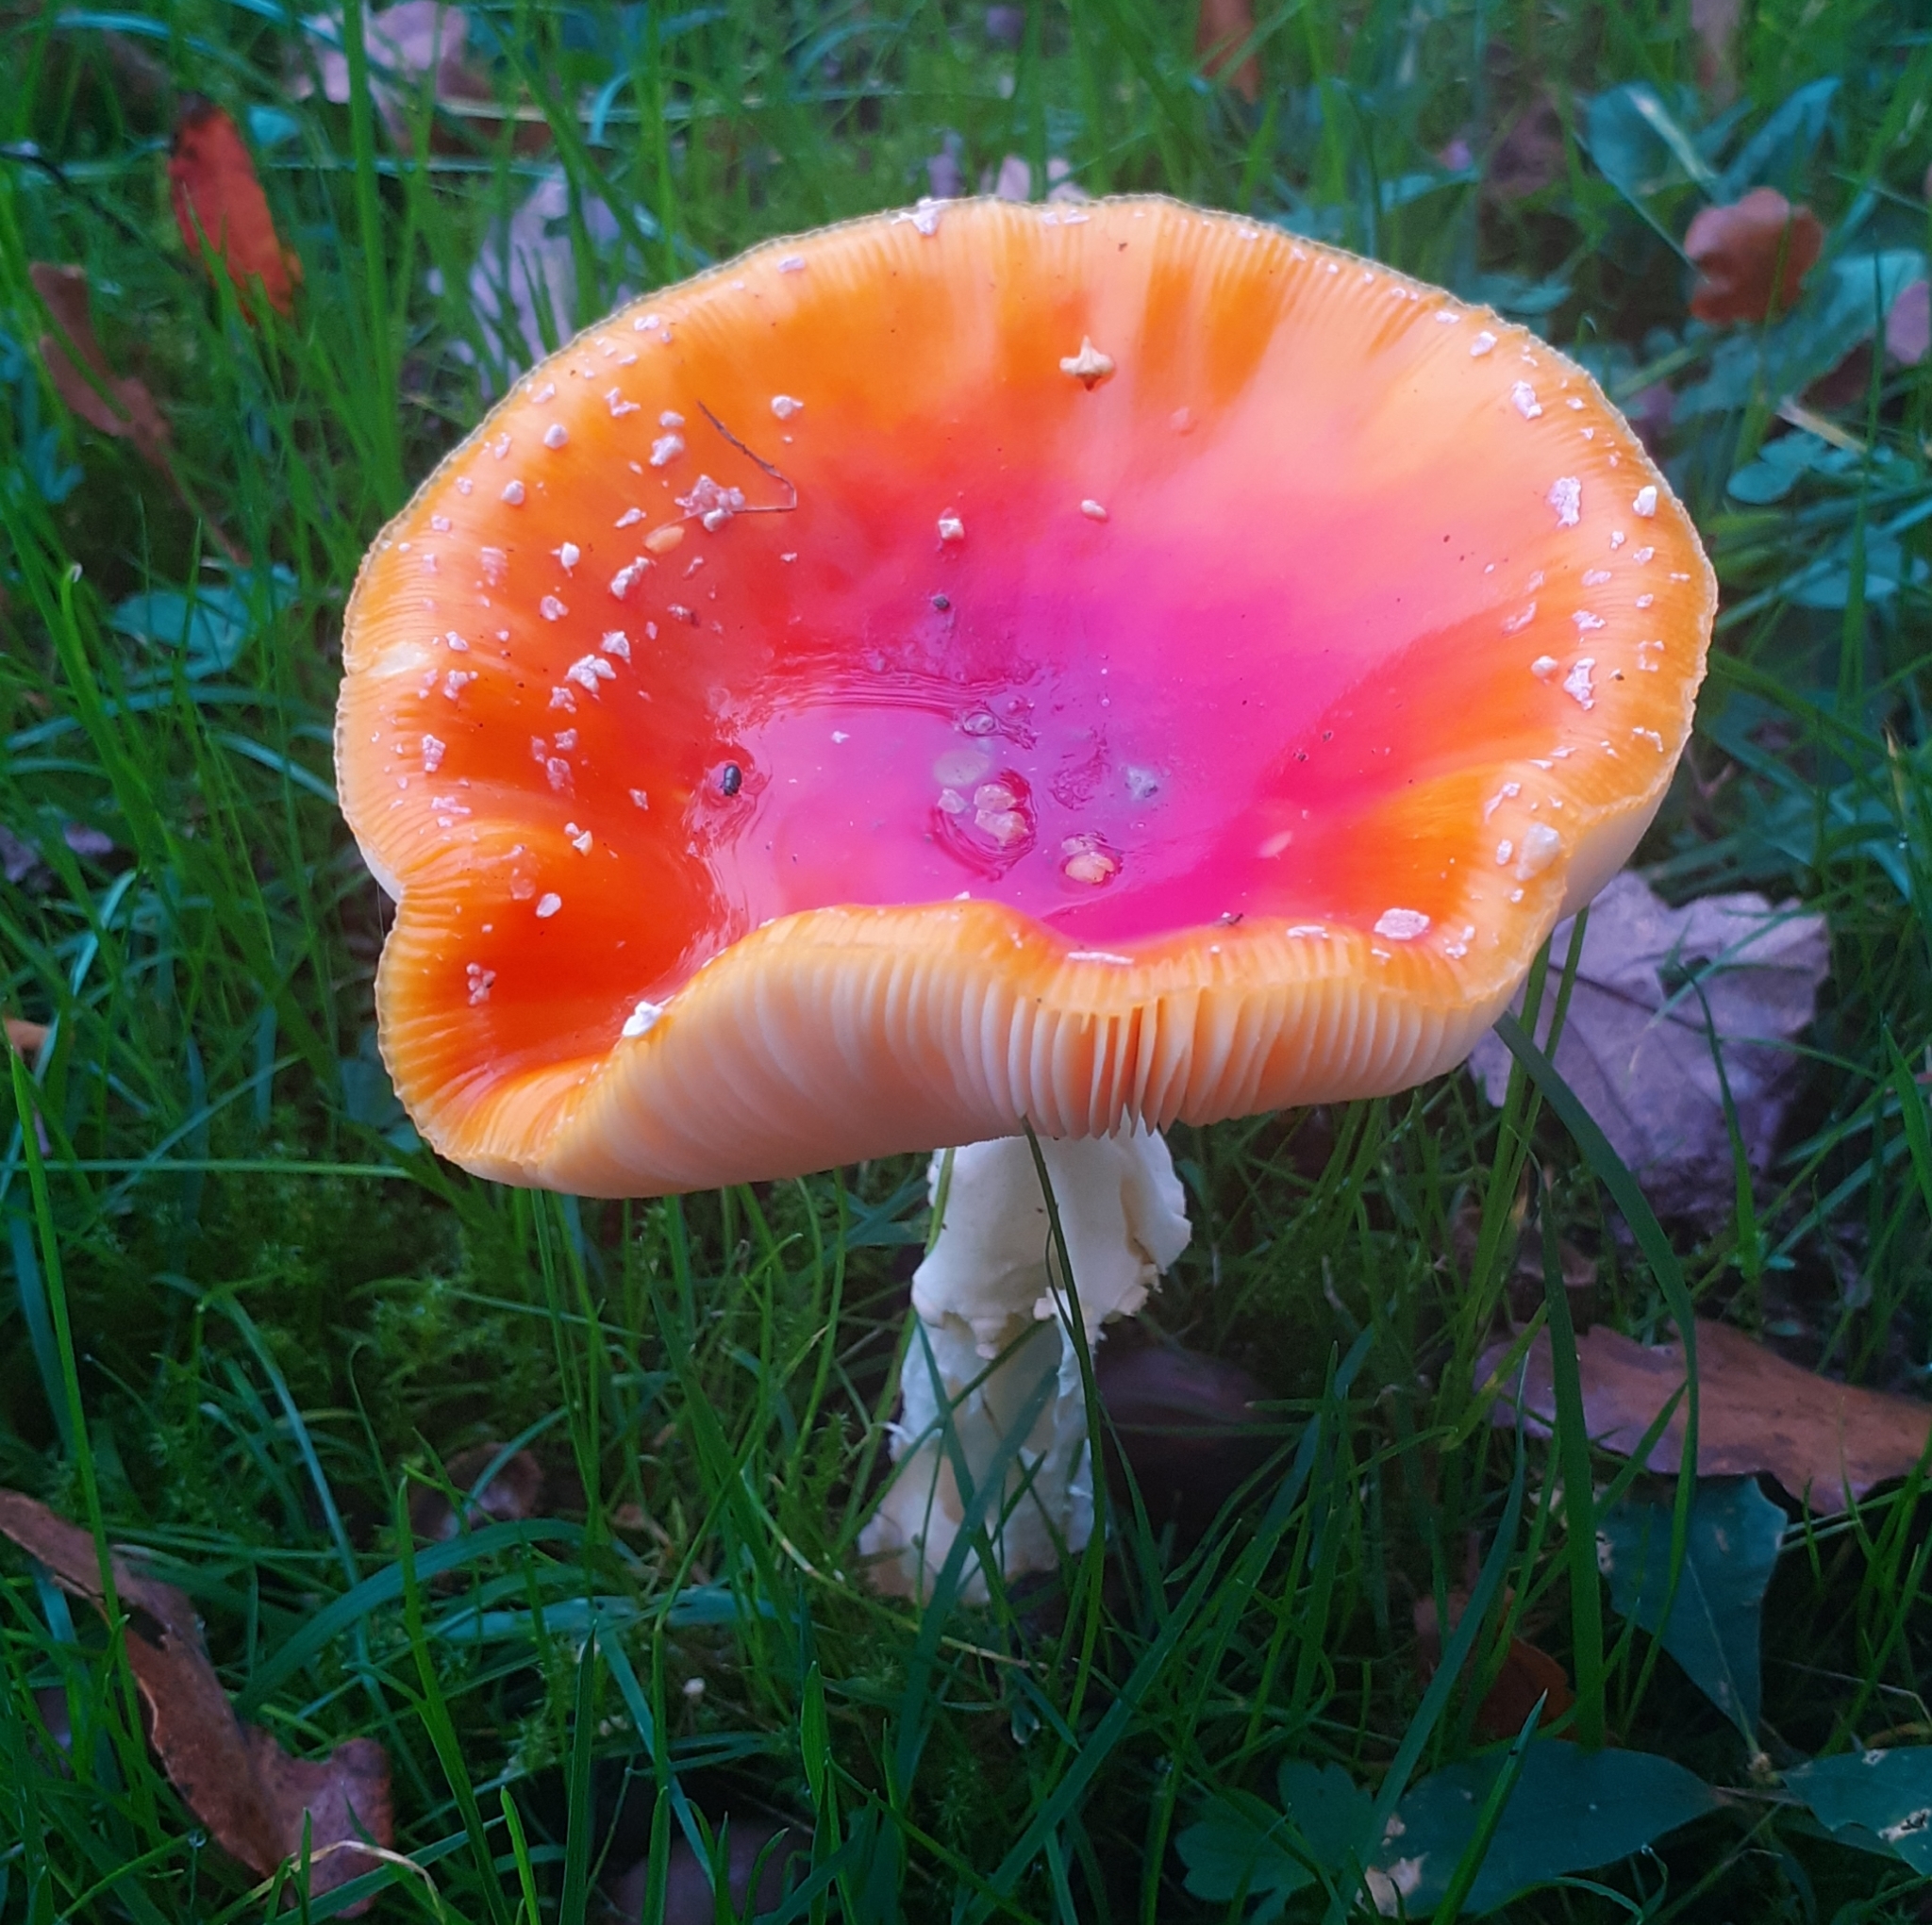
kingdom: Fungi
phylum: Basidiomycota
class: Agaricomycetes
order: Agaricales
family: Amanitaceae
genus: Amanita
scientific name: Amanita muscaria
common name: Fly agaric
